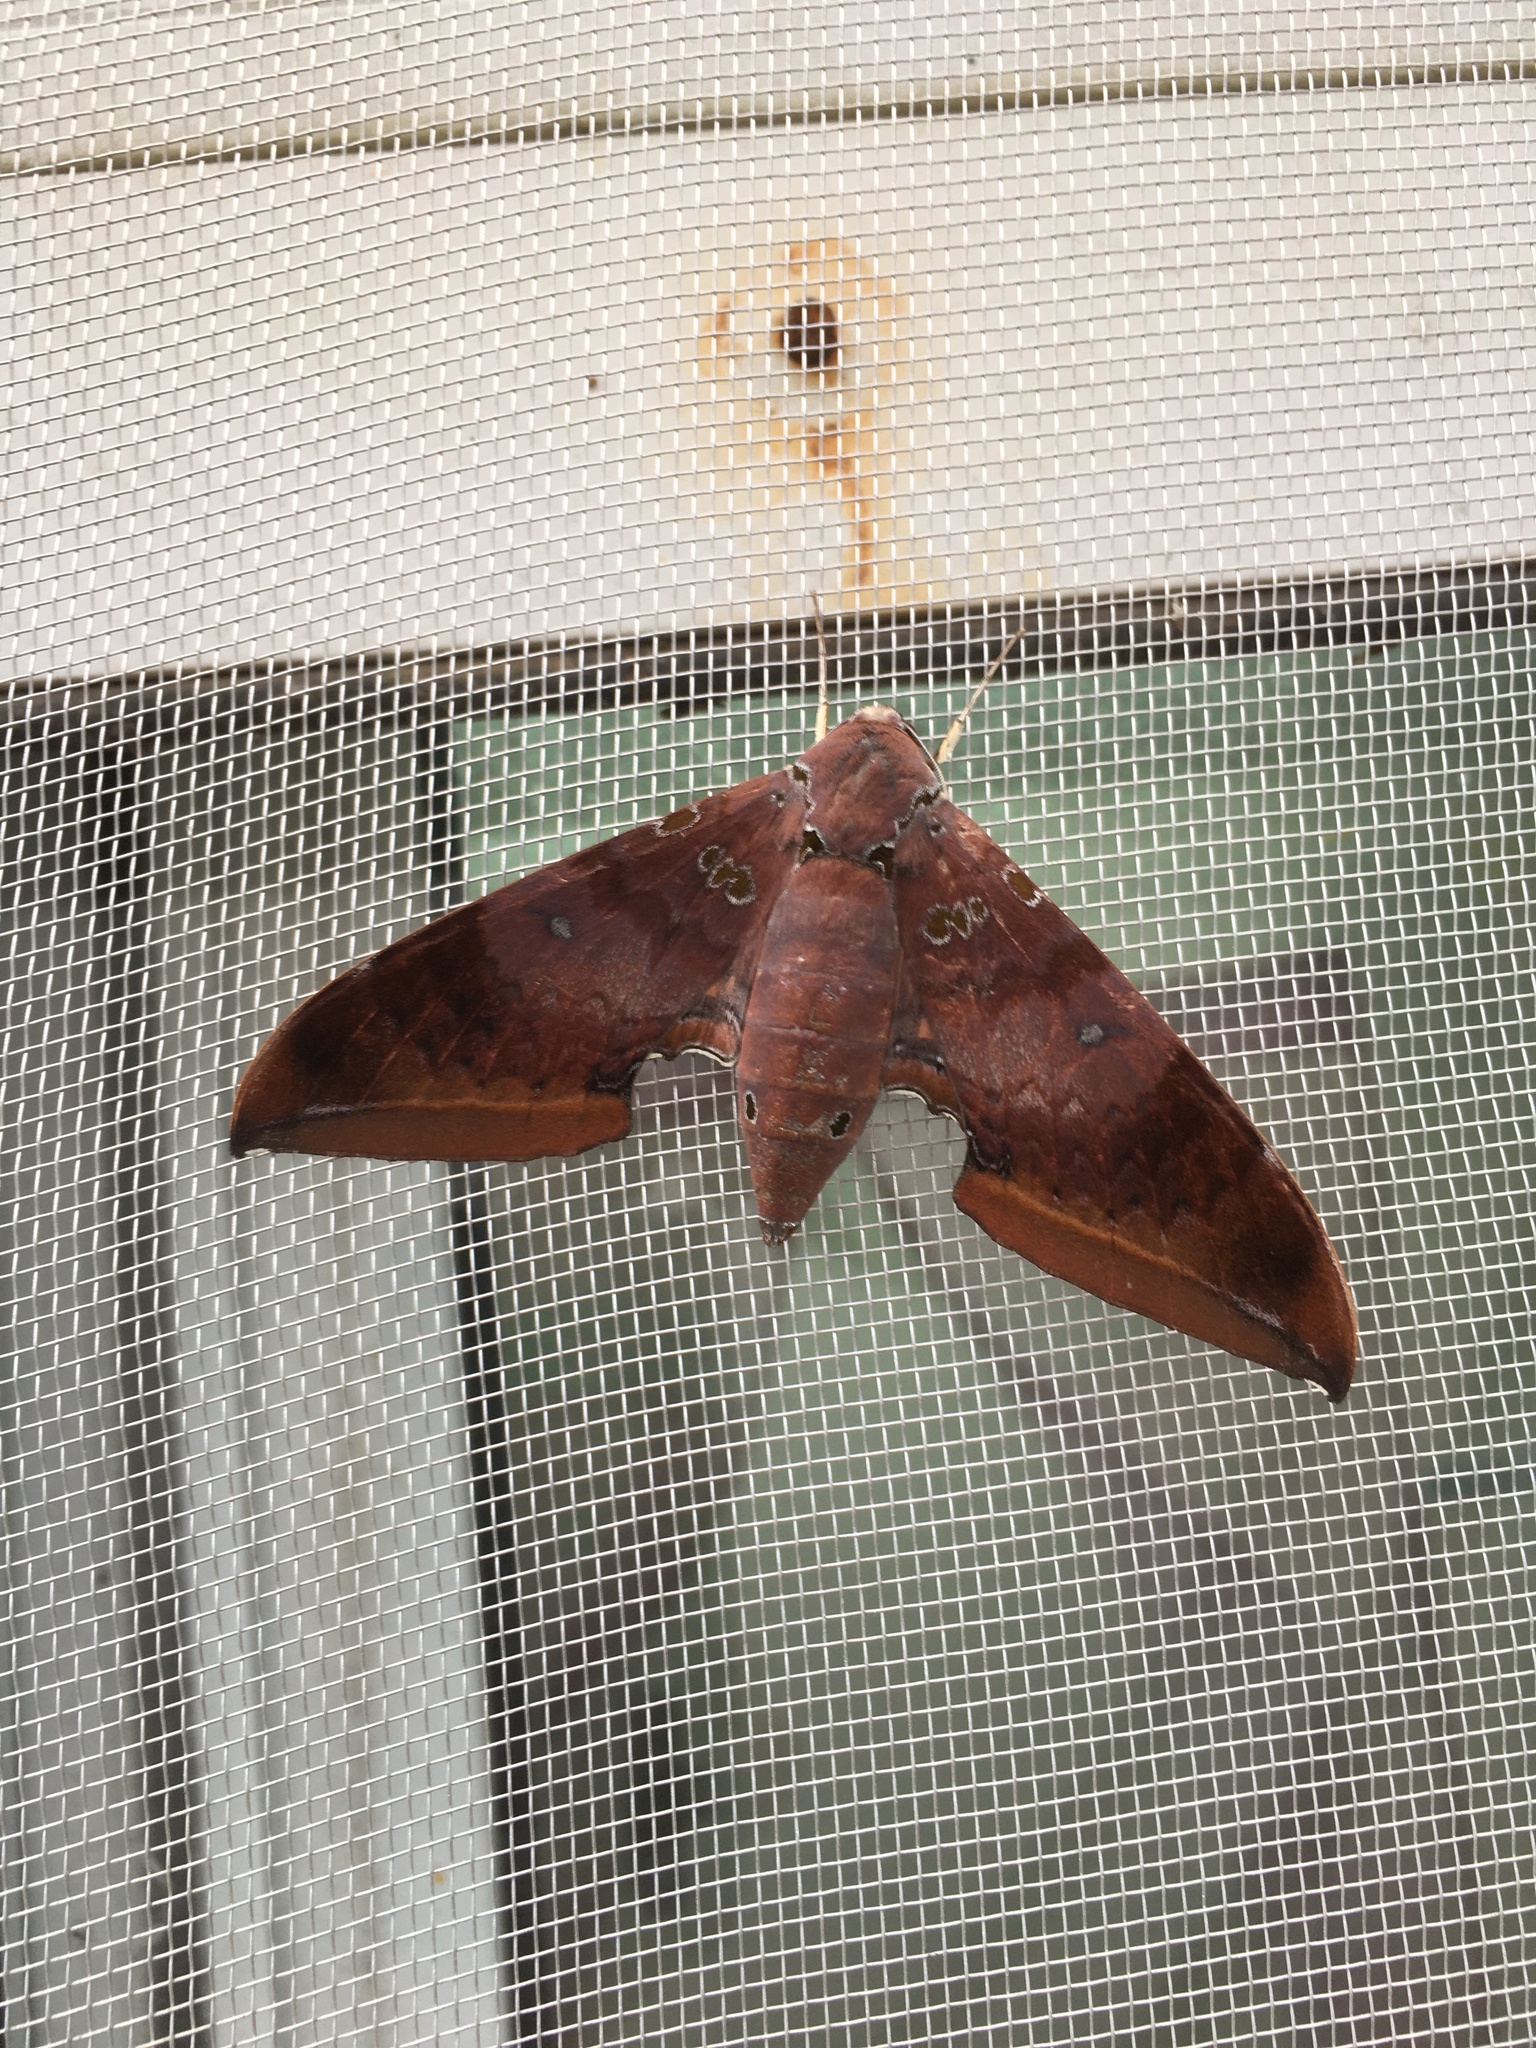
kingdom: Animalia
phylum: Arthropoda
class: Insecta
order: Lepidoptera
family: Sphingidae
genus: Ambulyx
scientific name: Ambulyx moorei
